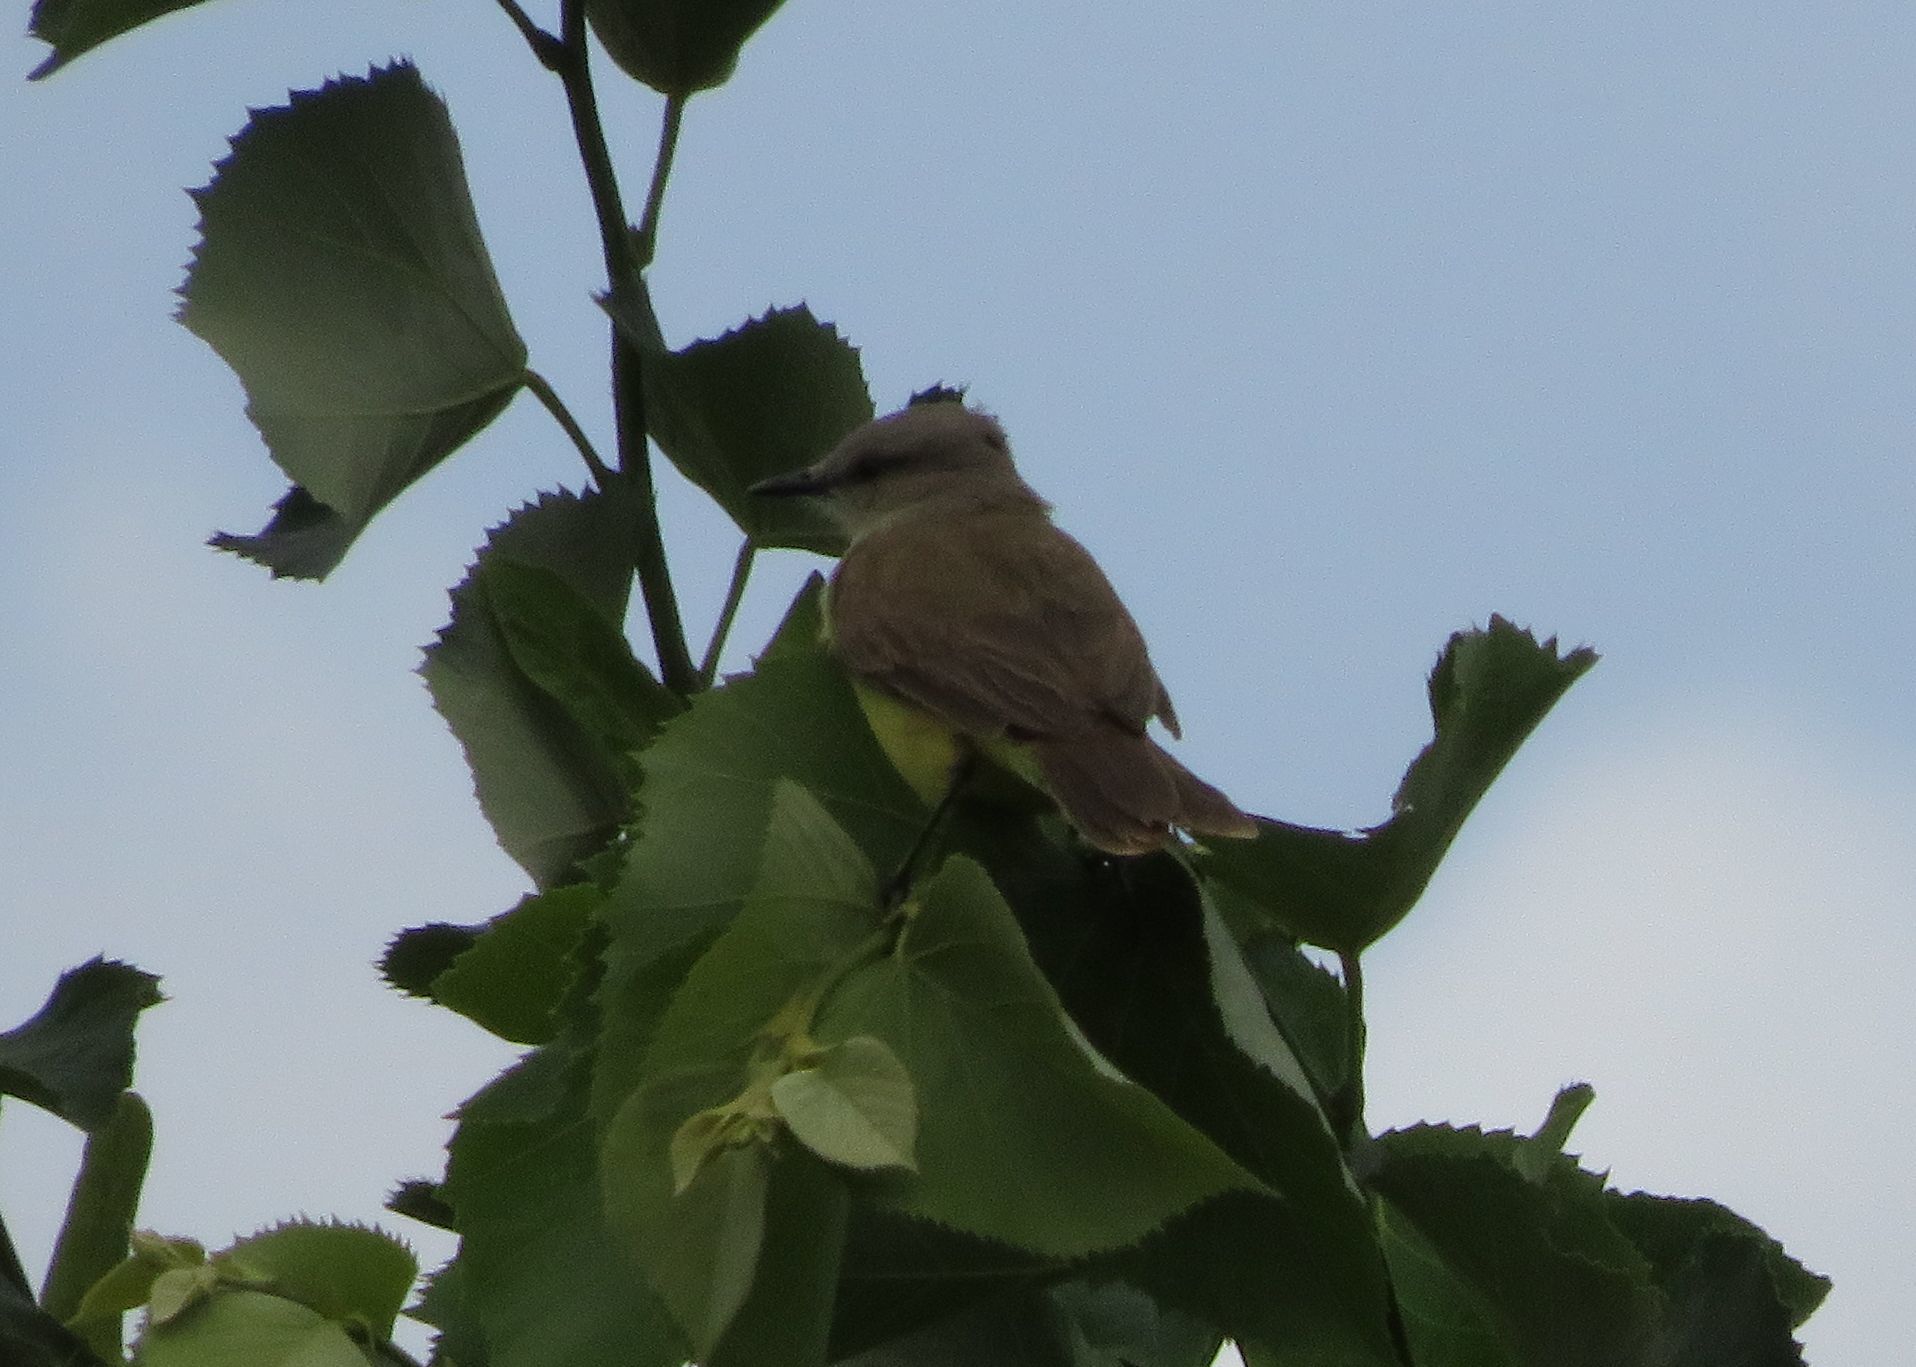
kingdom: Animalia
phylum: Chordata
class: Aves
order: Passeriformes
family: Tyrannidae
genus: Machetornis
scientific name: Machetornis rixosa
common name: Cattle tyrant
